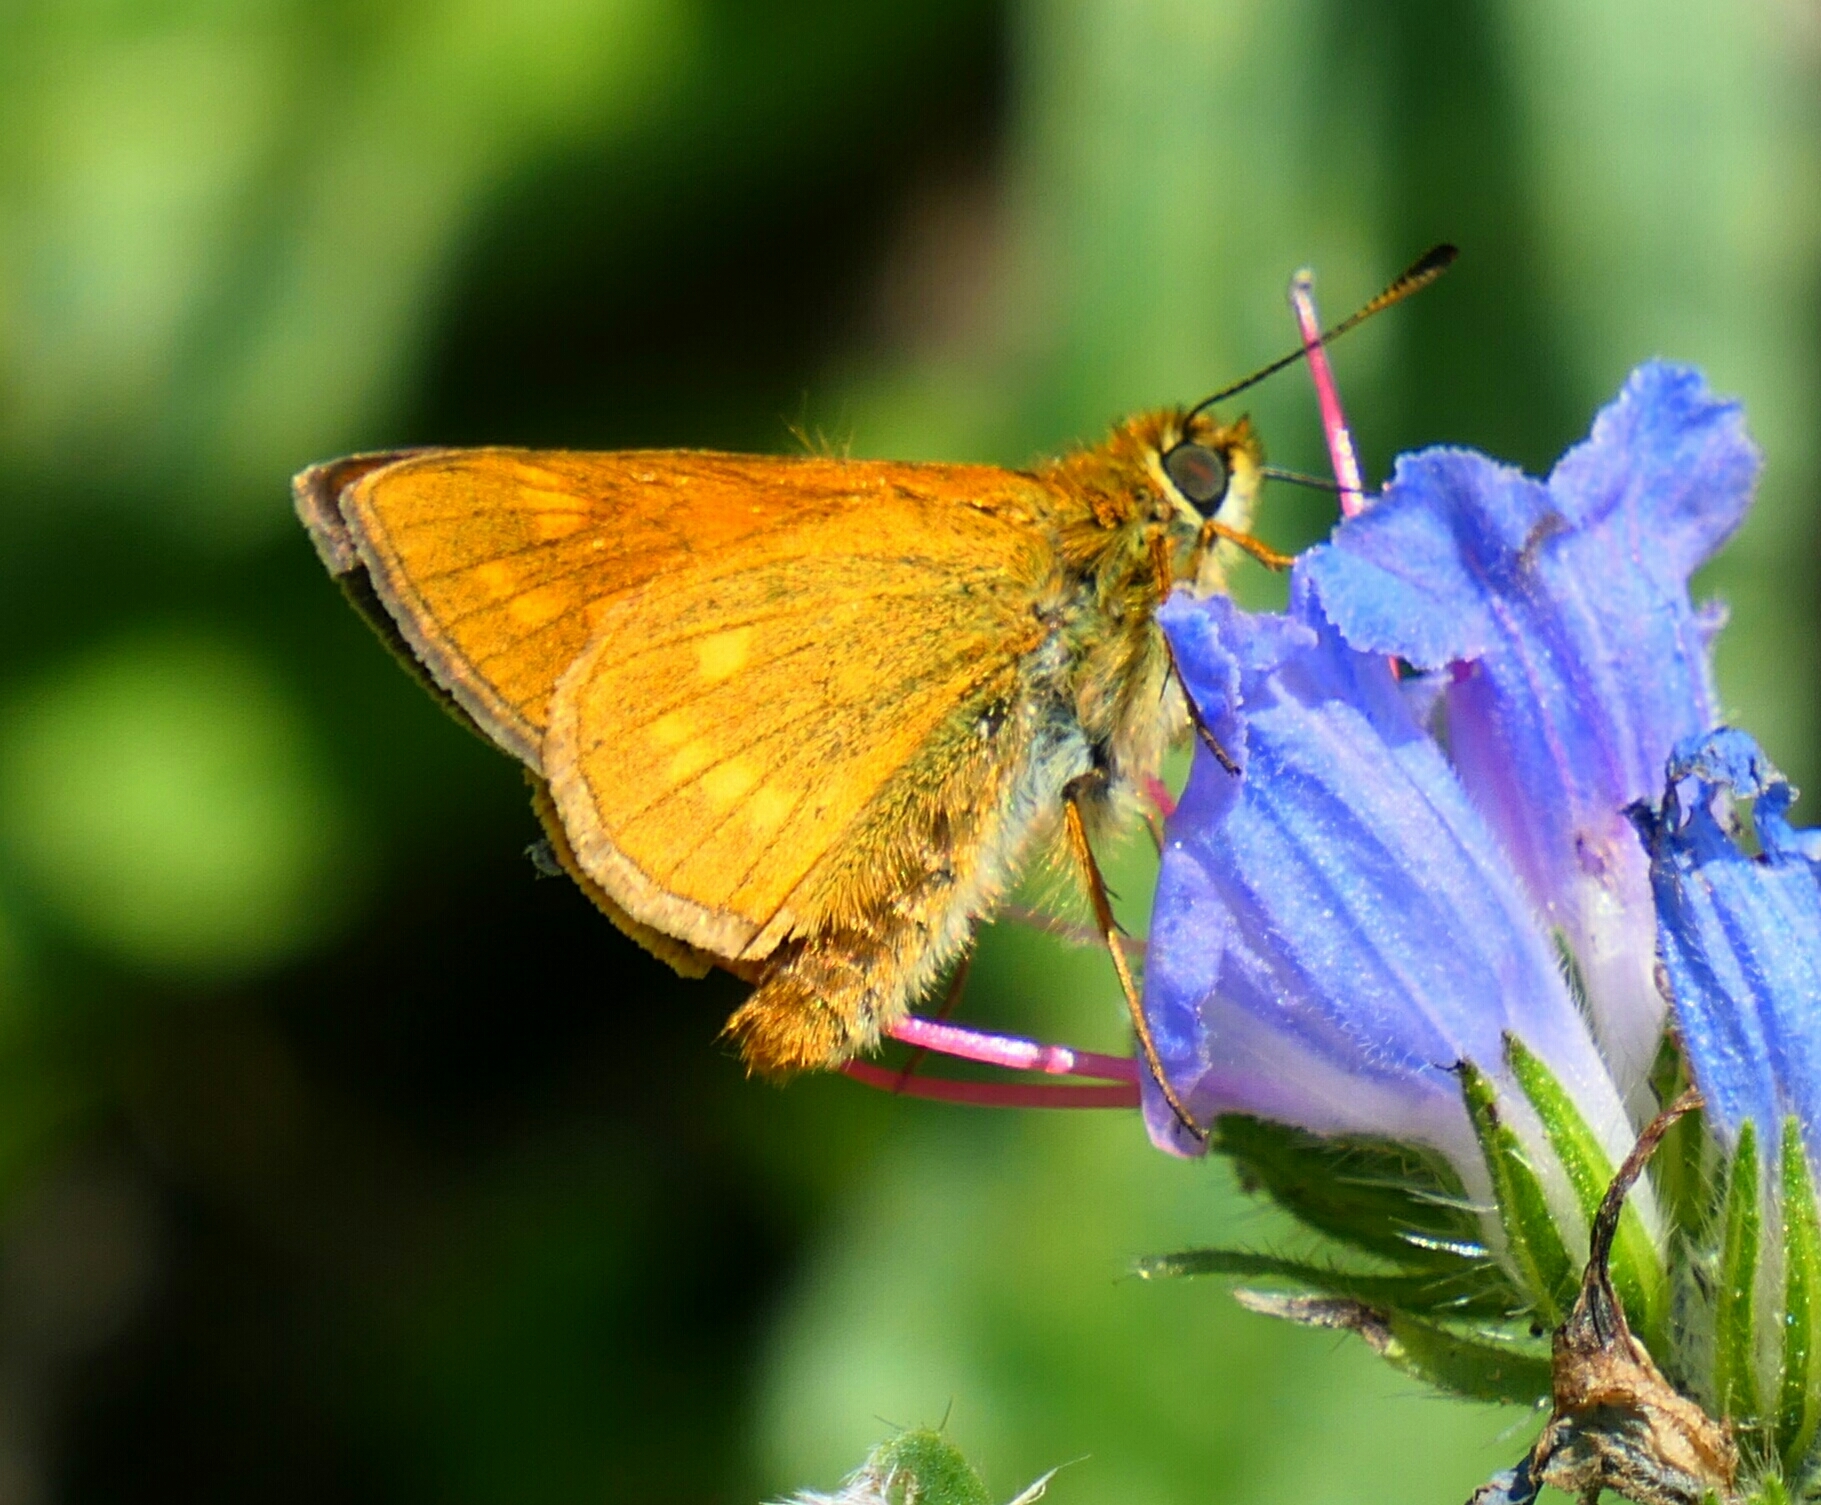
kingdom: Animalia
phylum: Arthropoda
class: Insecta
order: Lepidoptera
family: Hesperiidae
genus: Ochlodes
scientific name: Ochlodes venata
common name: Large skipper
